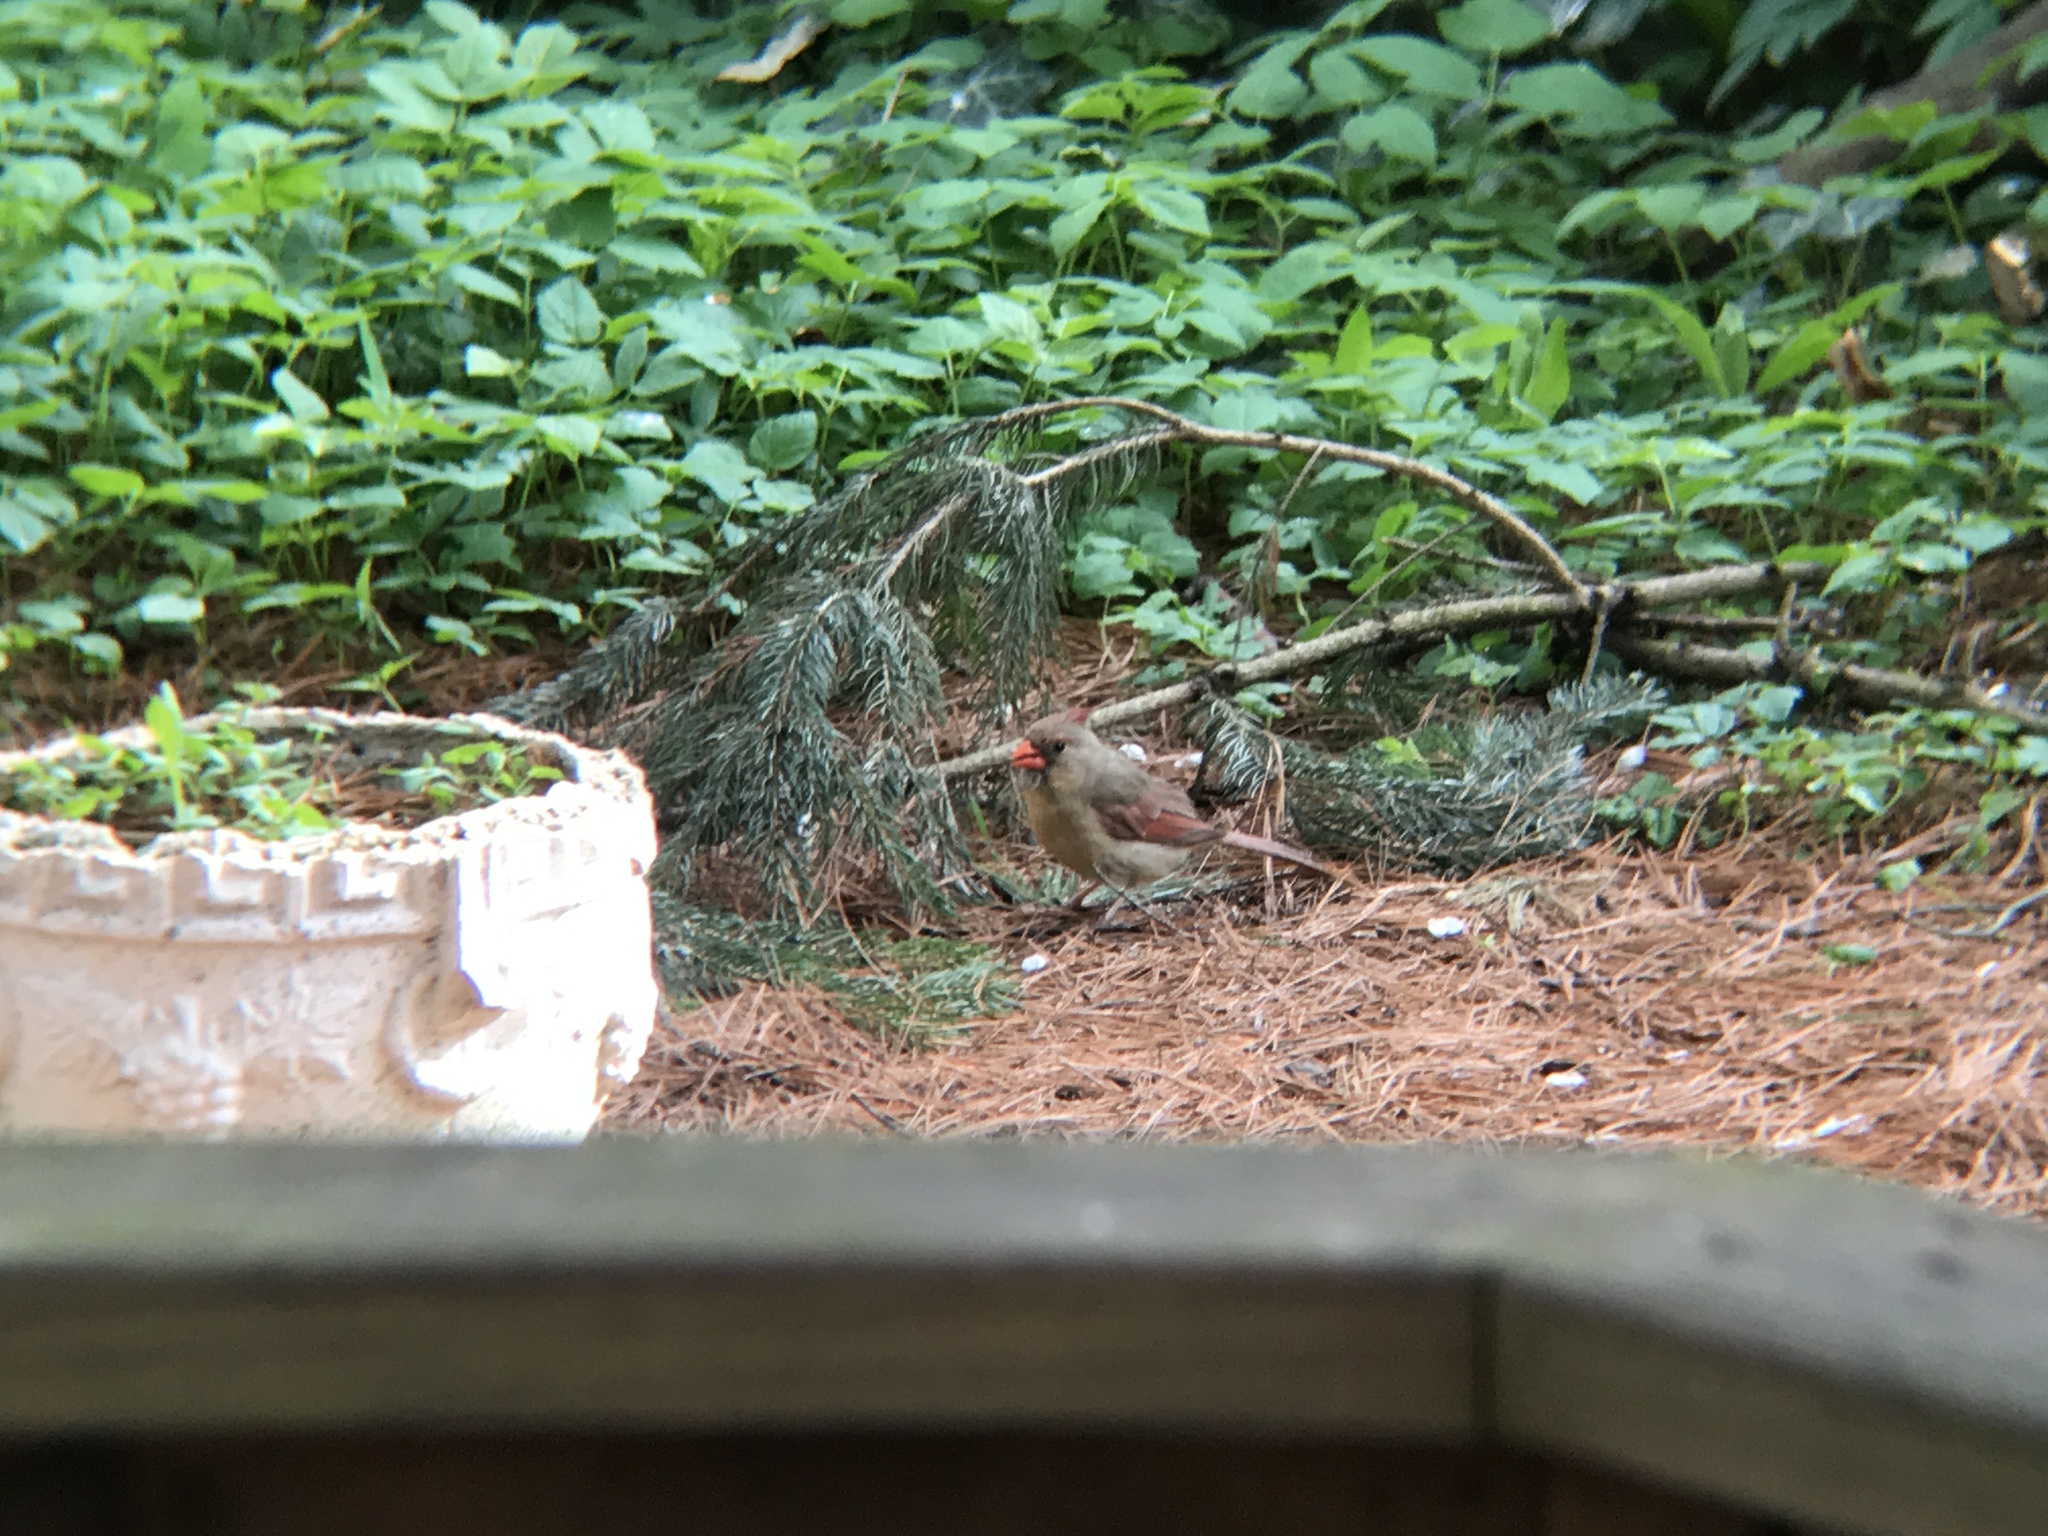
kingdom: Animalia
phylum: Chordata
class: Aves
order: Passeriformes
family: Cardinalidae
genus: Cardinalis
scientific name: Cardinalis cardinalis
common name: Northern cardinal
